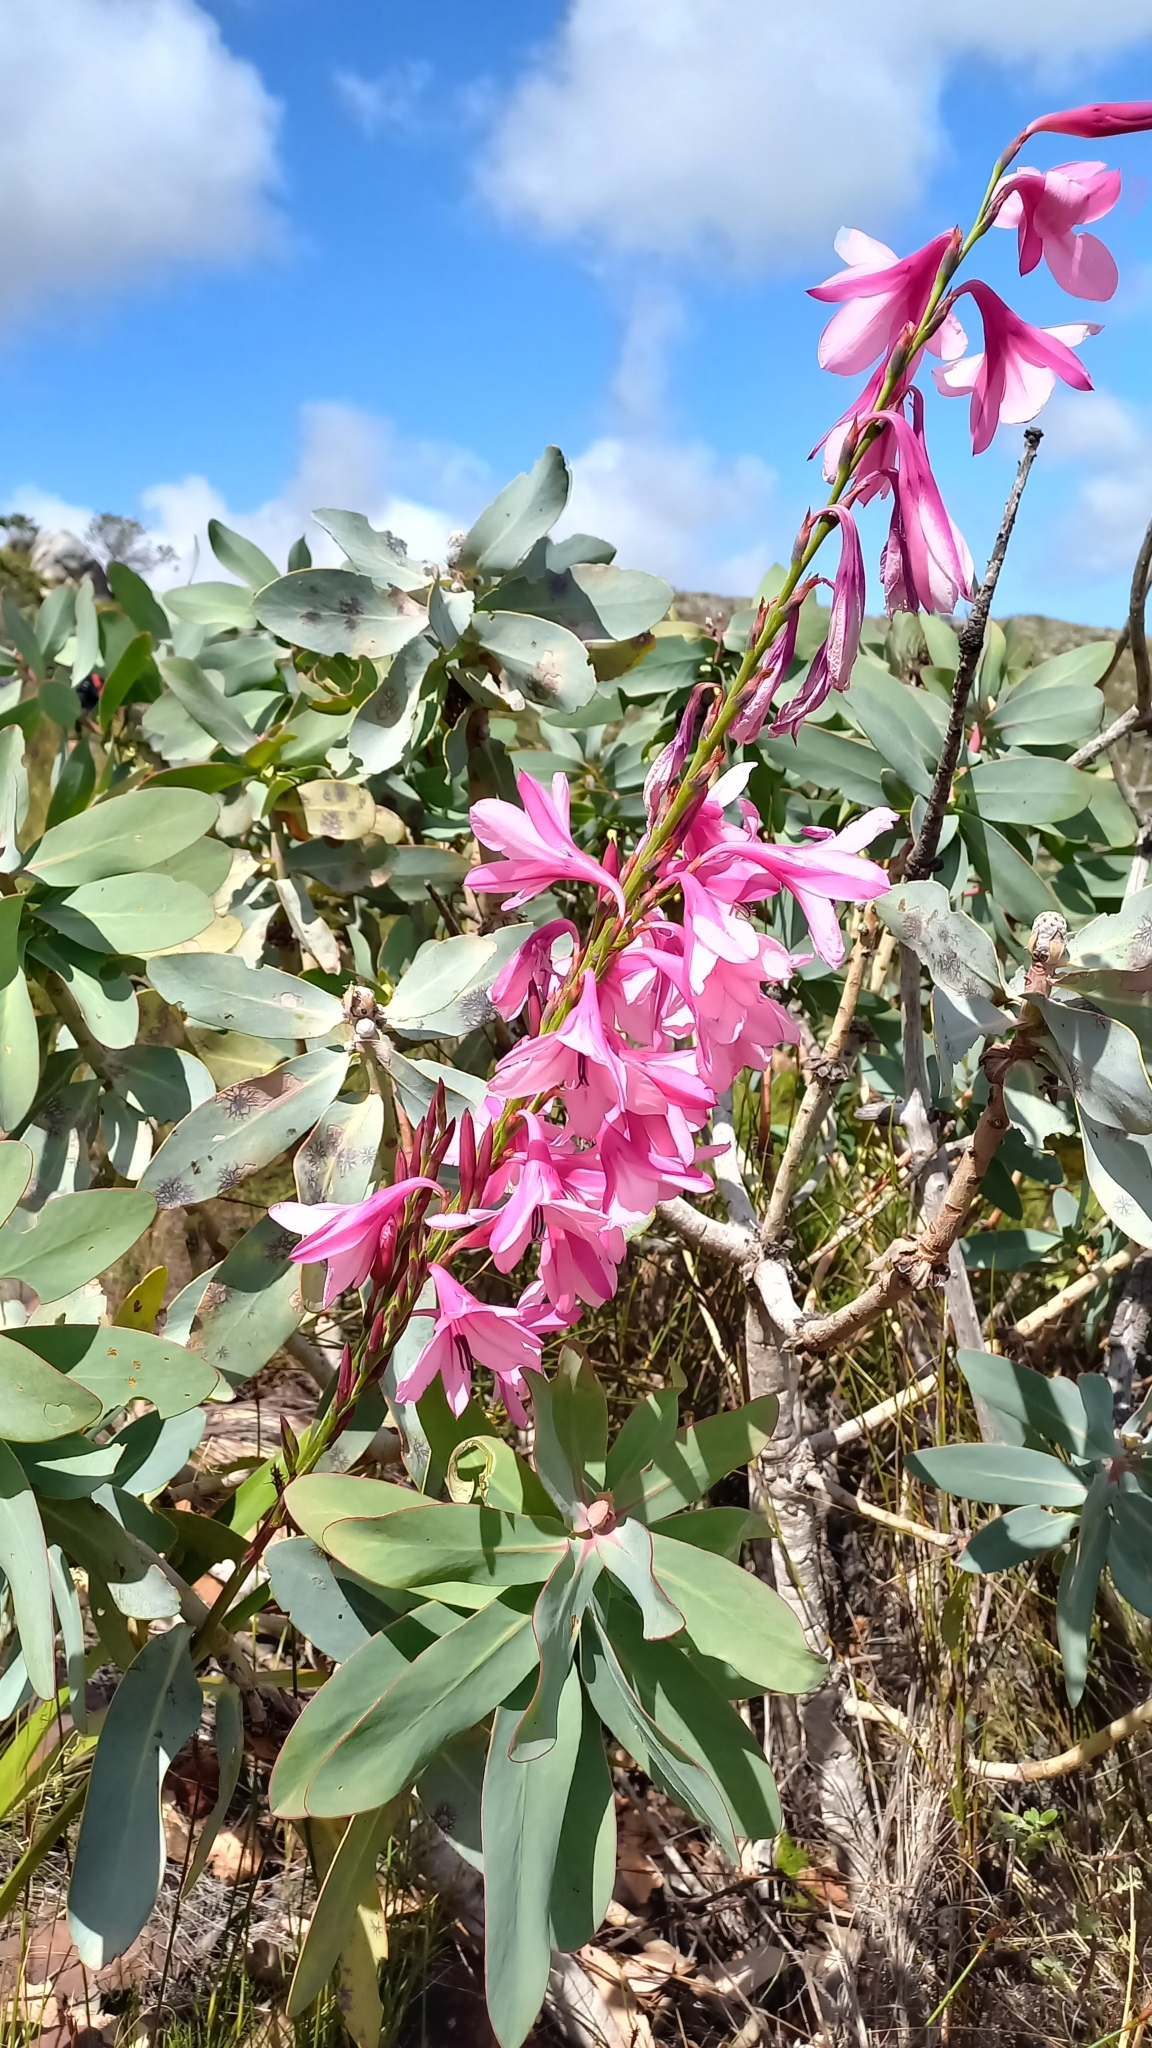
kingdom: Plantae
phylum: Tracheophyta
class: Liliopsida
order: Asparagales
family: Iridaceae
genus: Watsonia
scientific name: Watsonia borbonica
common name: Bugle-lily
